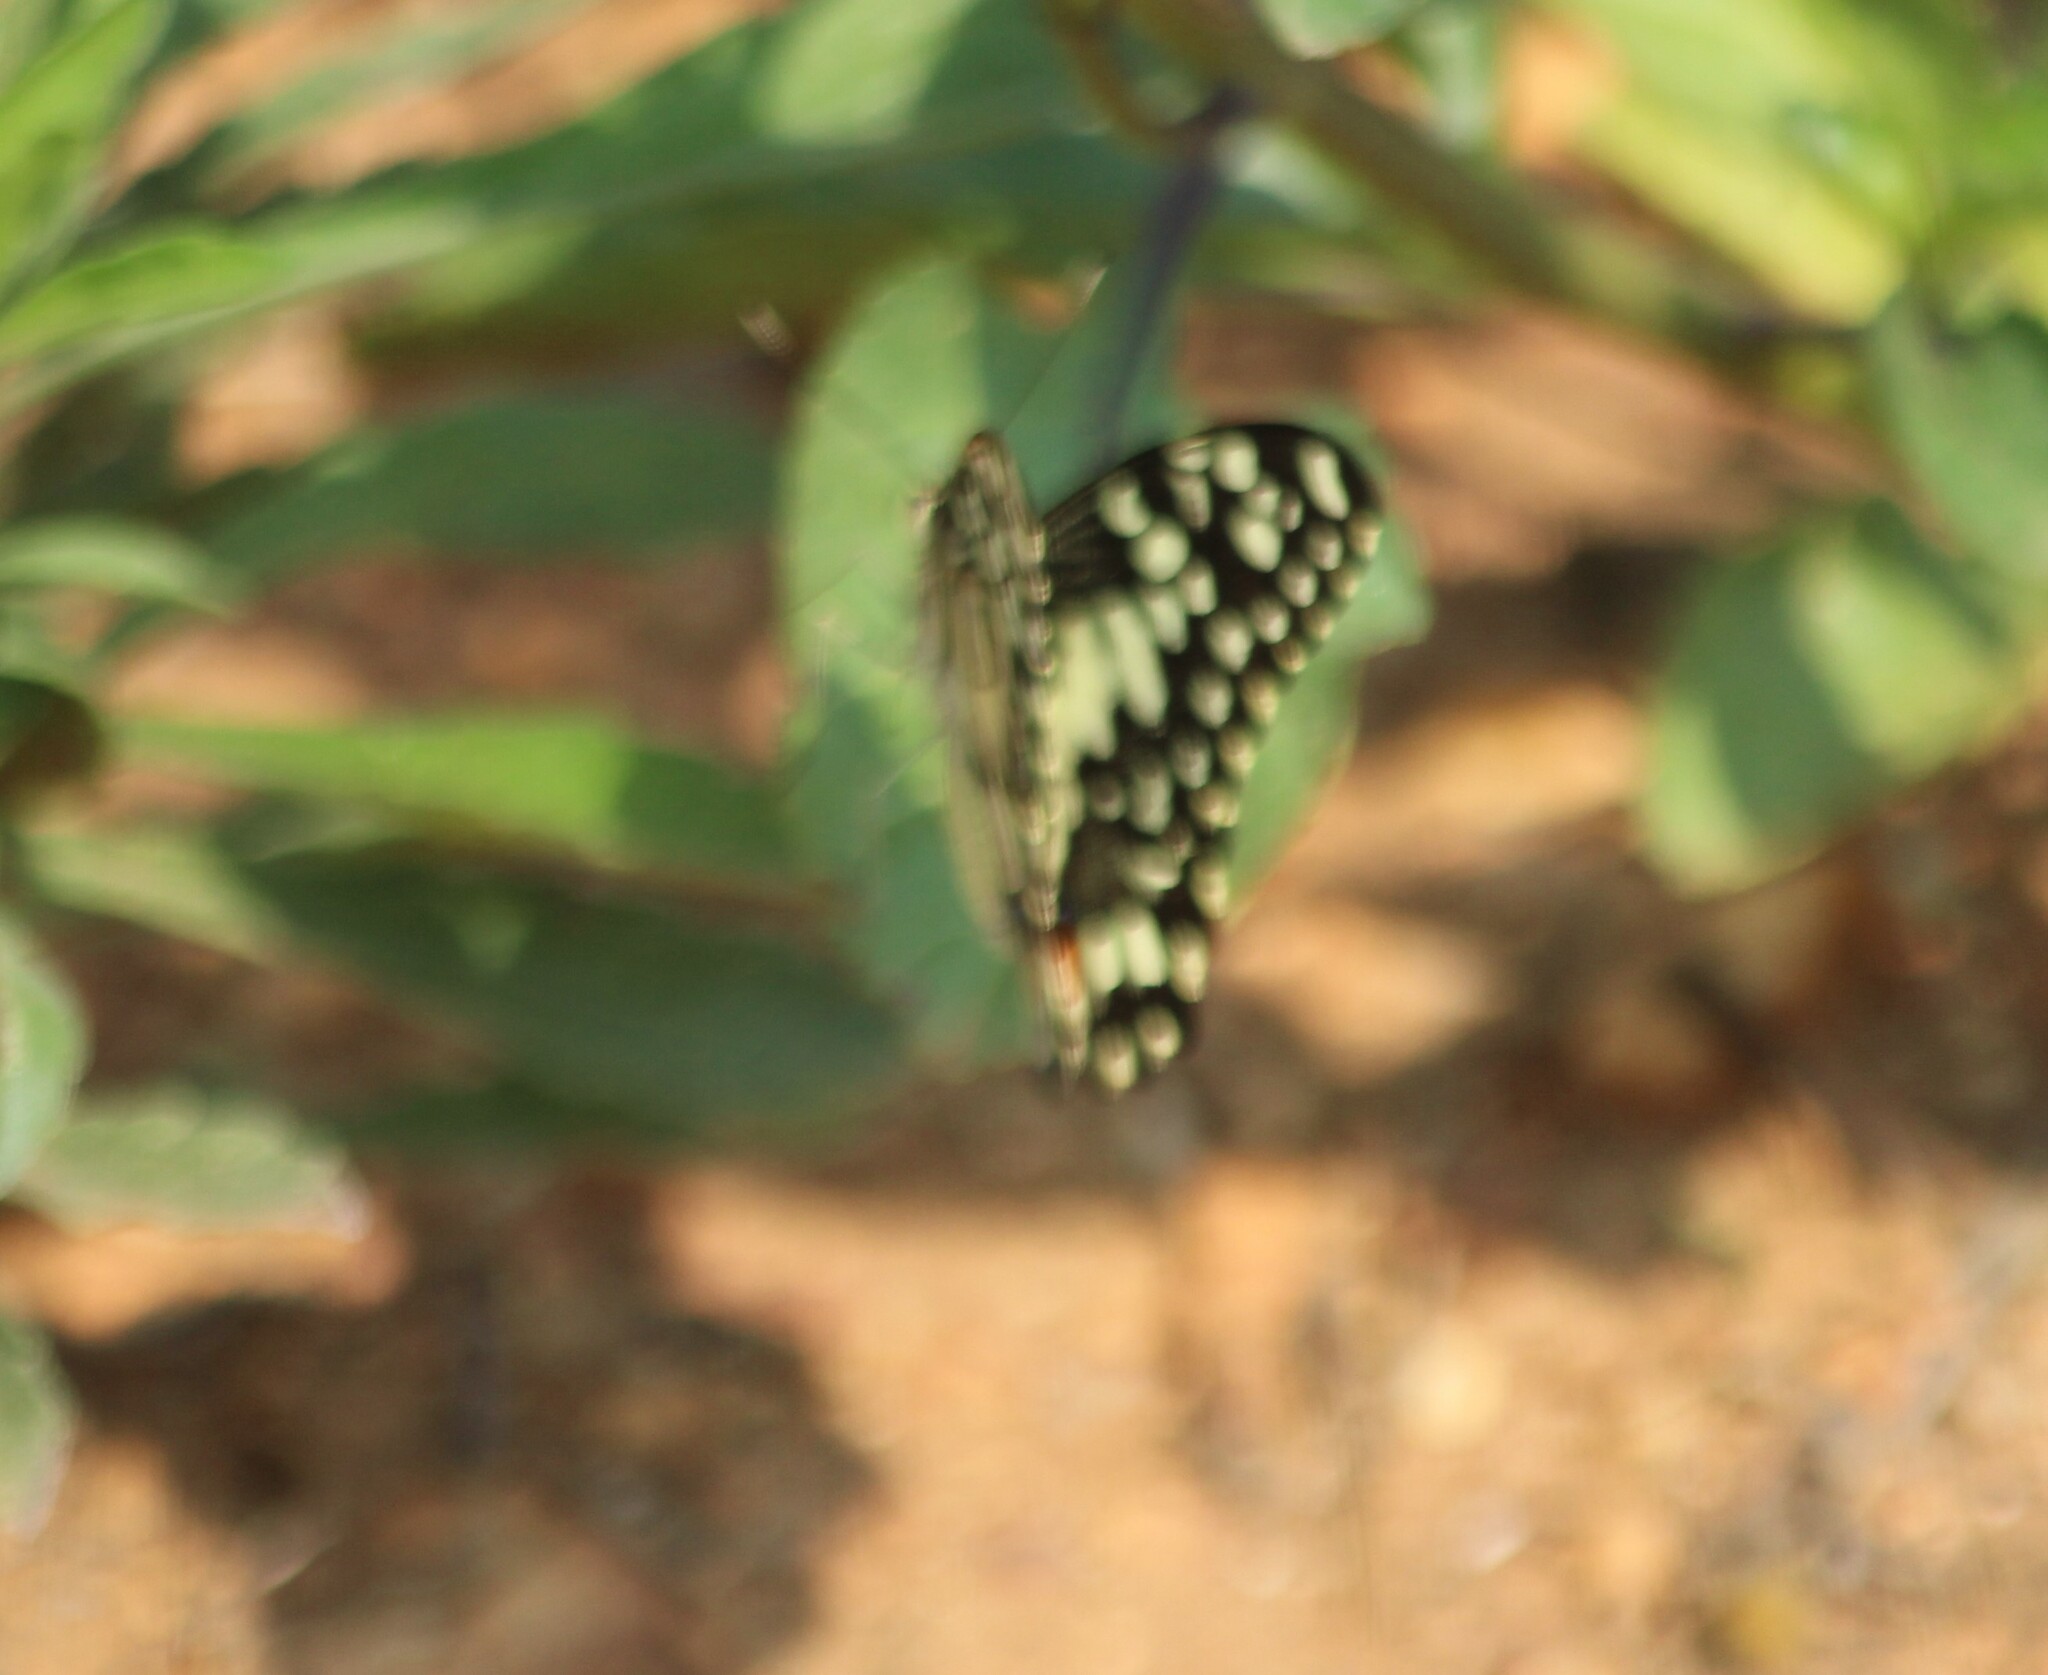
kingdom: Animalia
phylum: Arthropoda
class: Insecta
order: Lepidoptera
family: Papilionidae
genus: Papilio
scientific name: Papilio demoleus
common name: Lime butterfly
